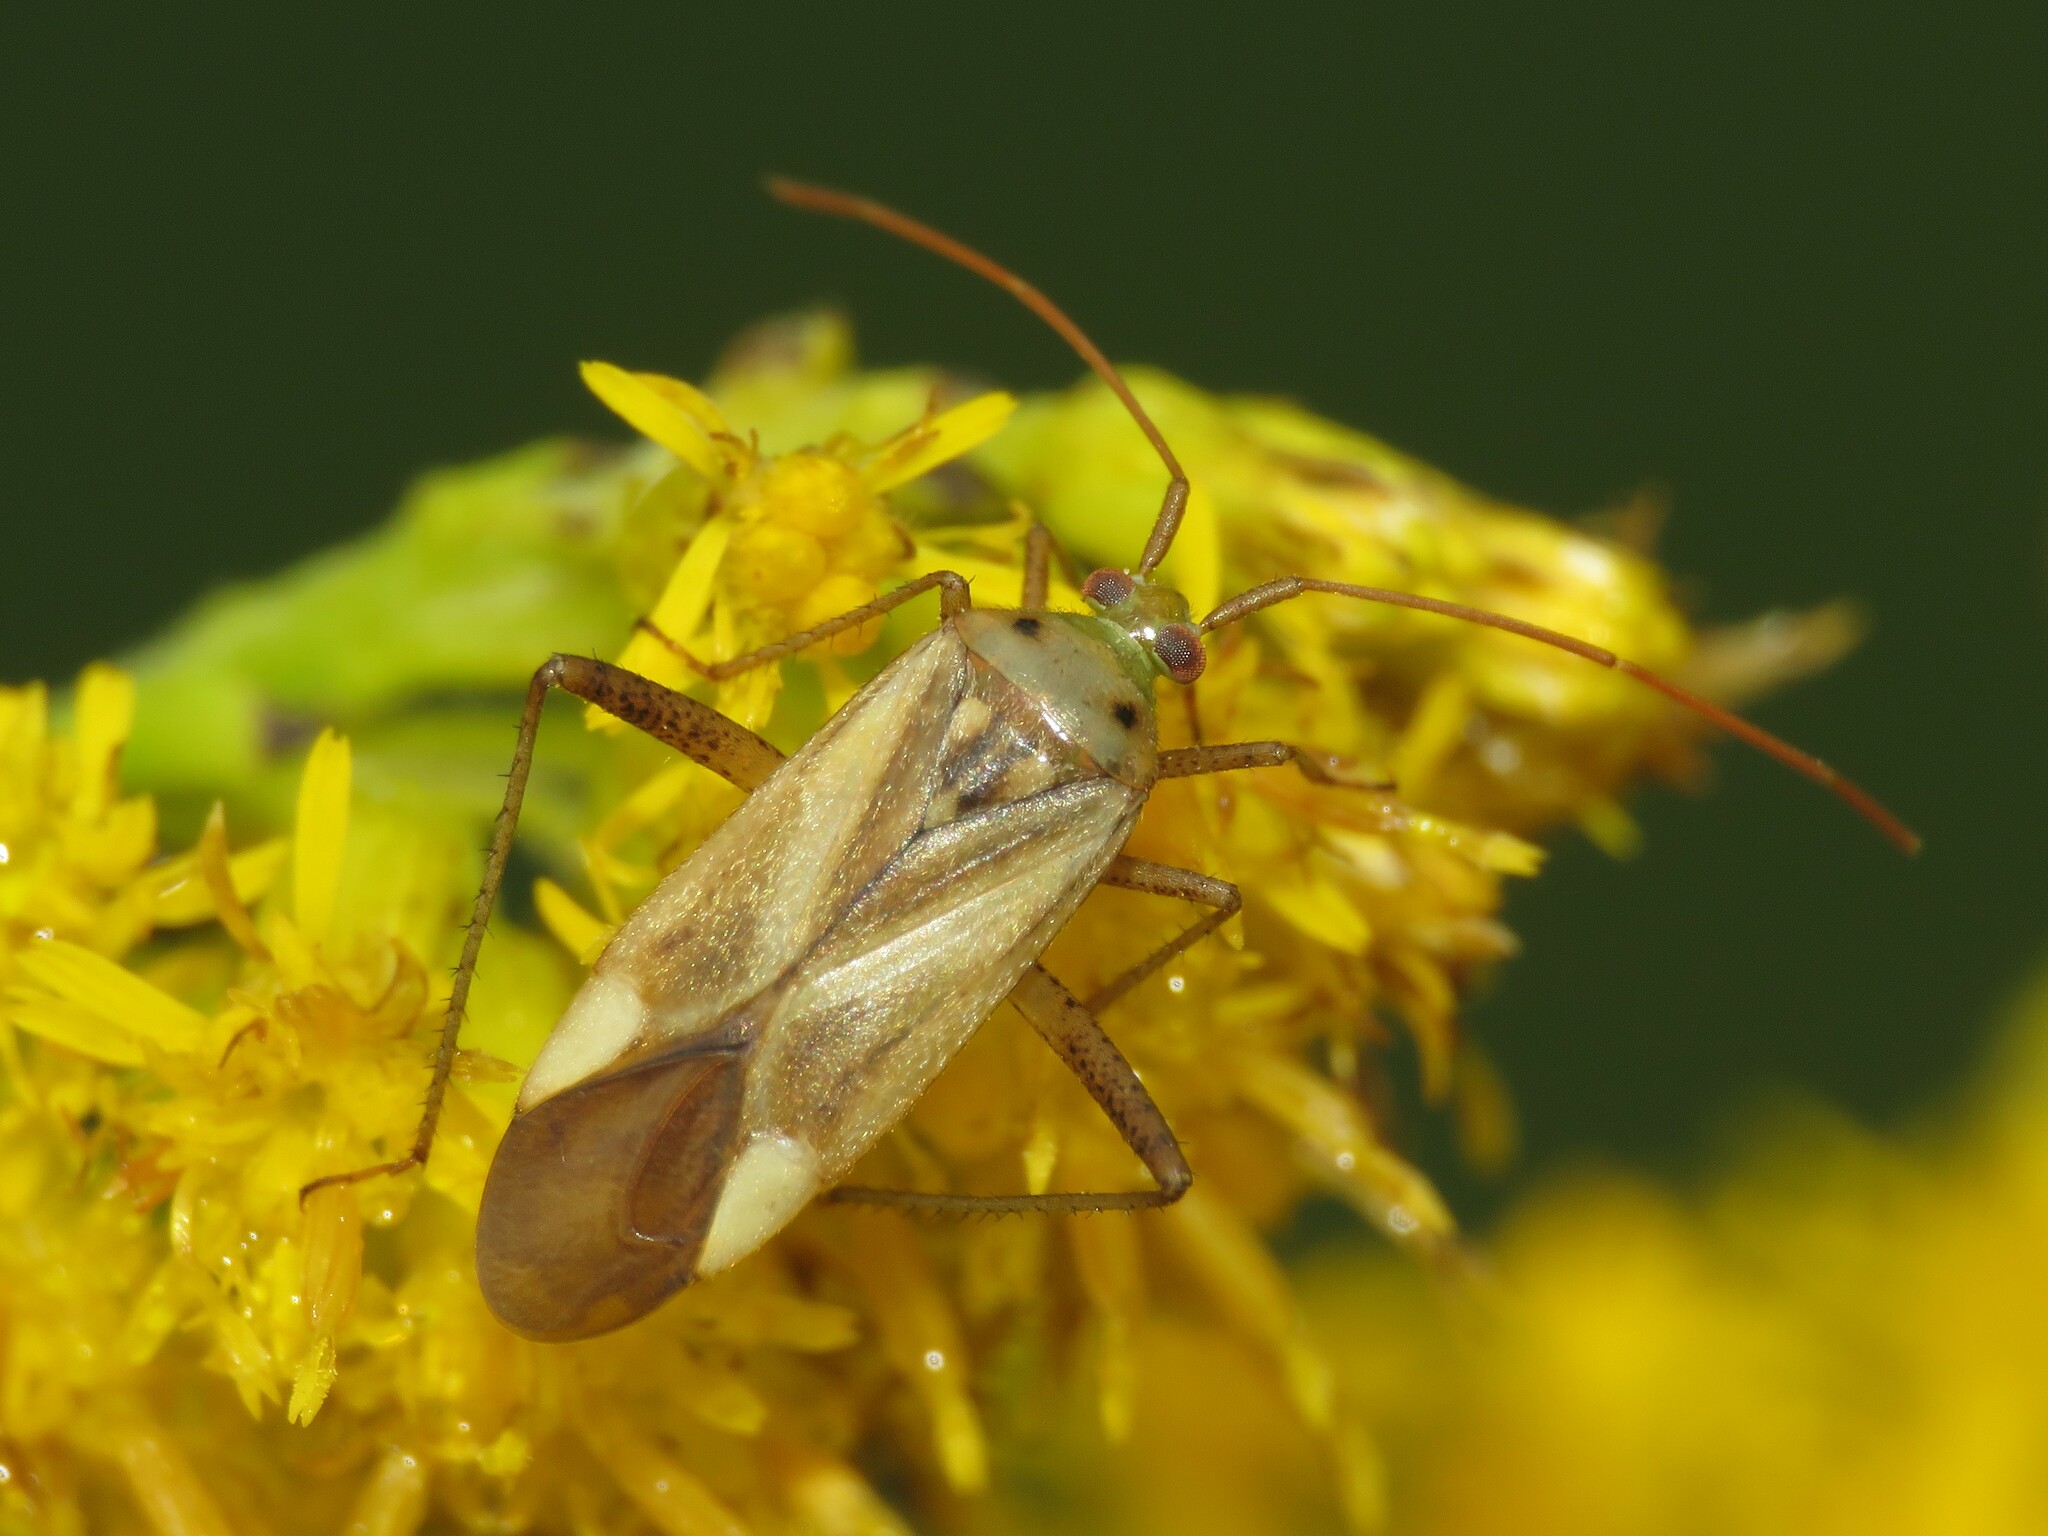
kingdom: Animalia
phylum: Arthropoda
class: Insecta
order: Hemiptera
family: Miridae
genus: Adelphocoris
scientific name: Adelphocoris lineolatus
